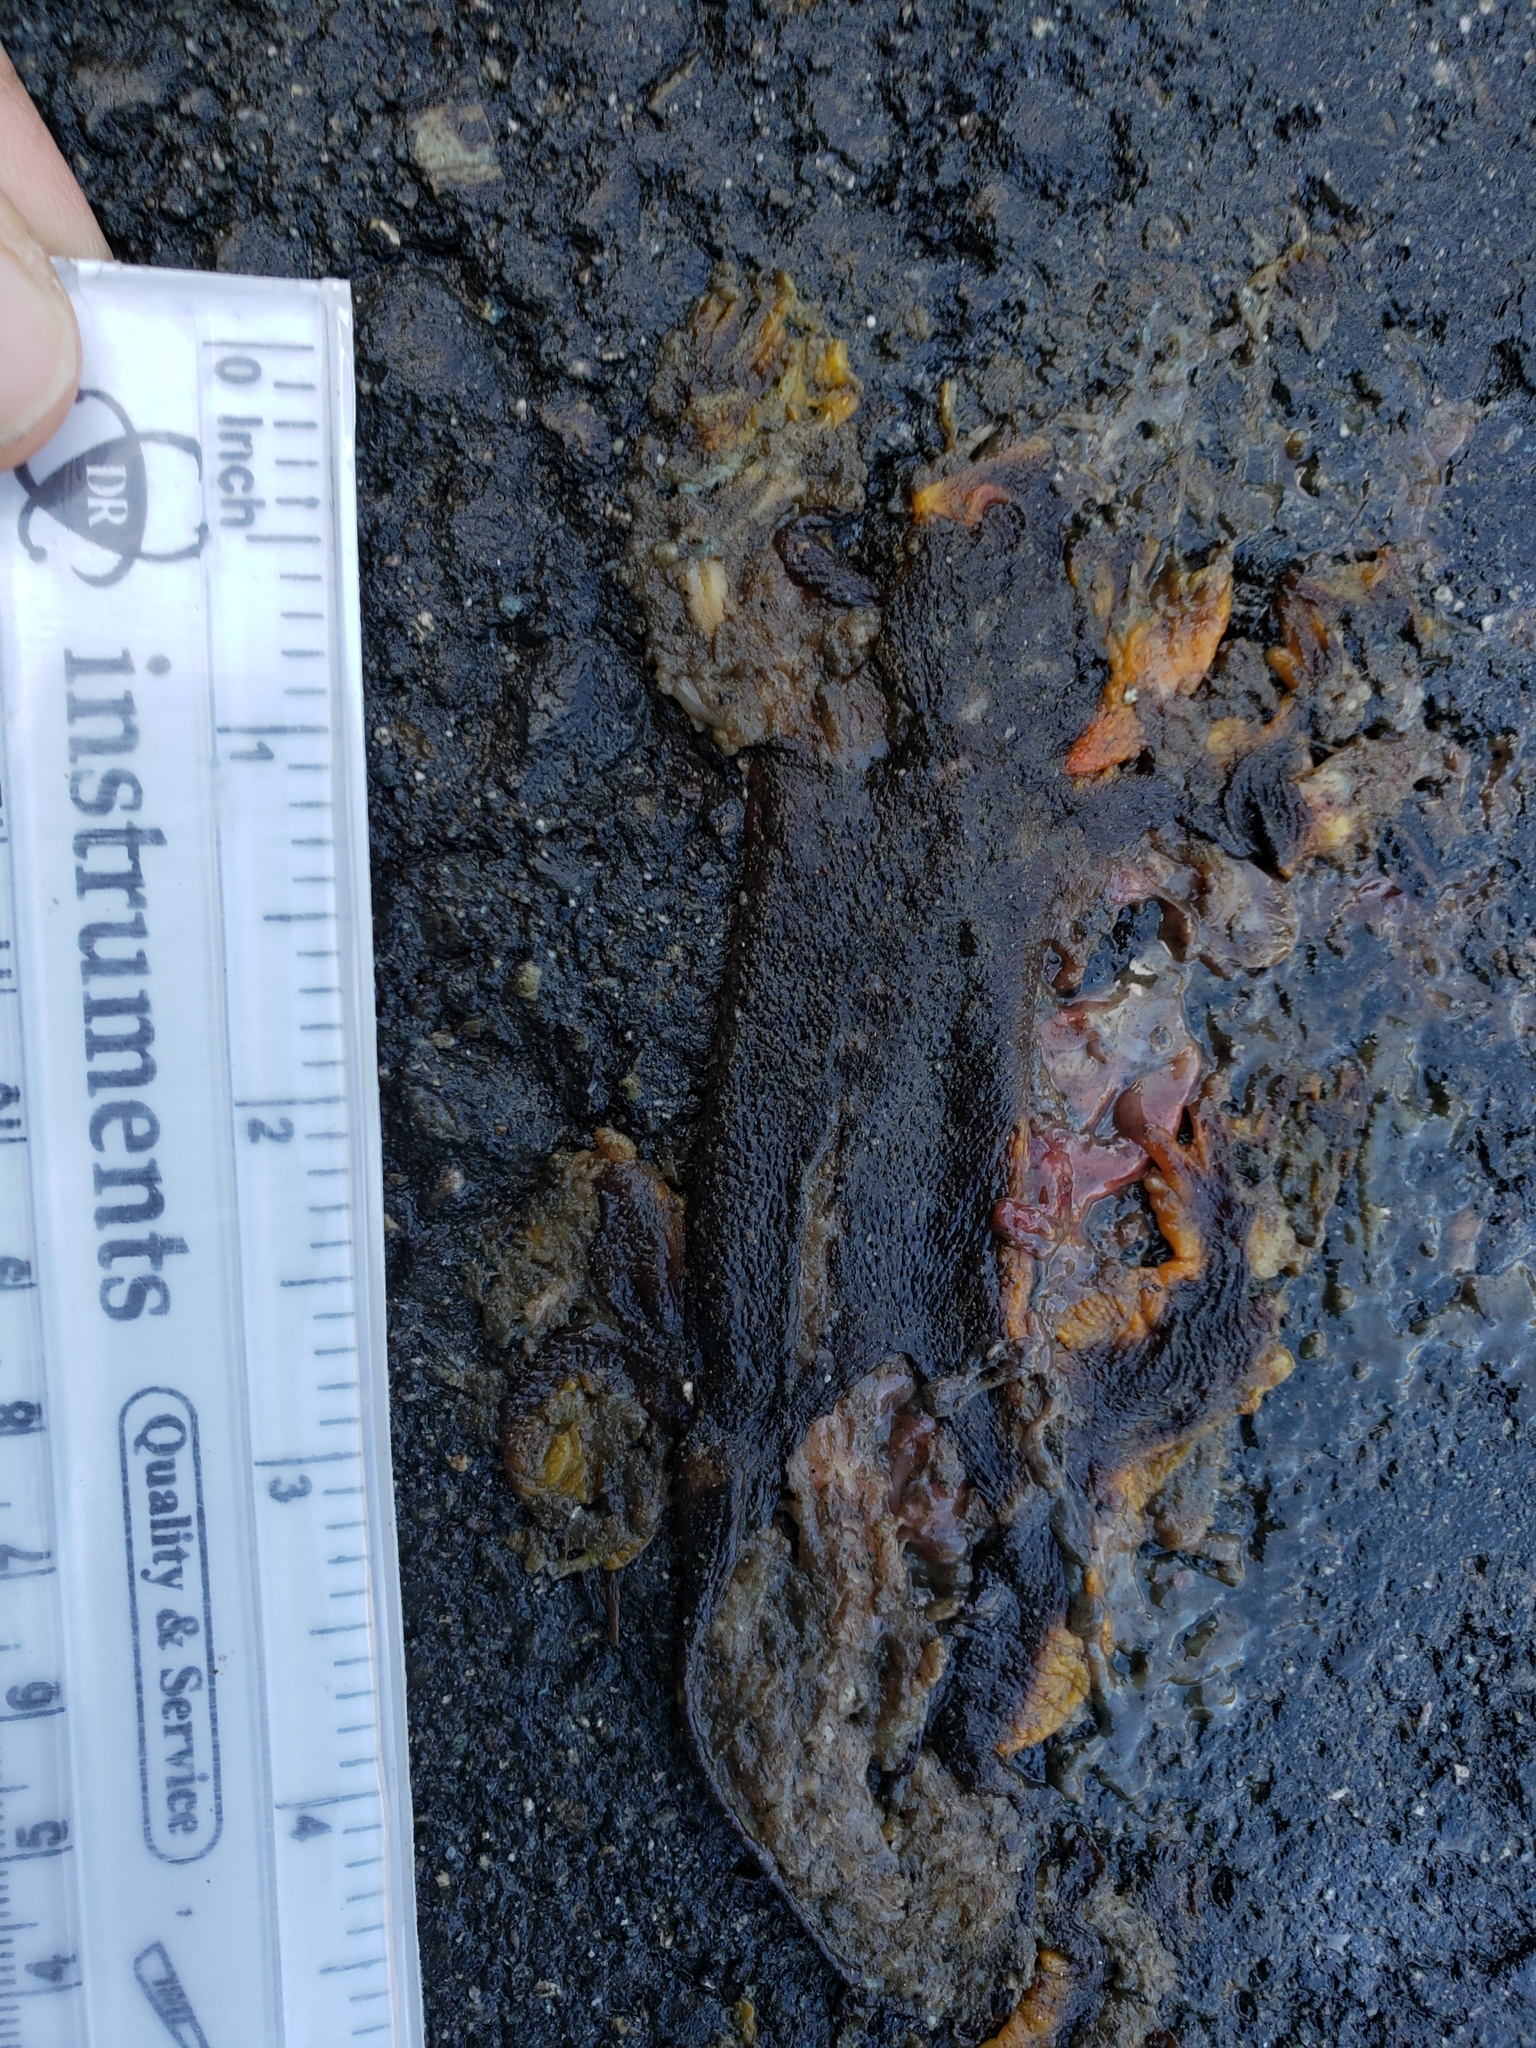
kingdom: Animalia
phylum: Chordata
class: Amphibia
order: Caudata
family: Salamandridae
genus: Taricha
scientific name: Taricha
